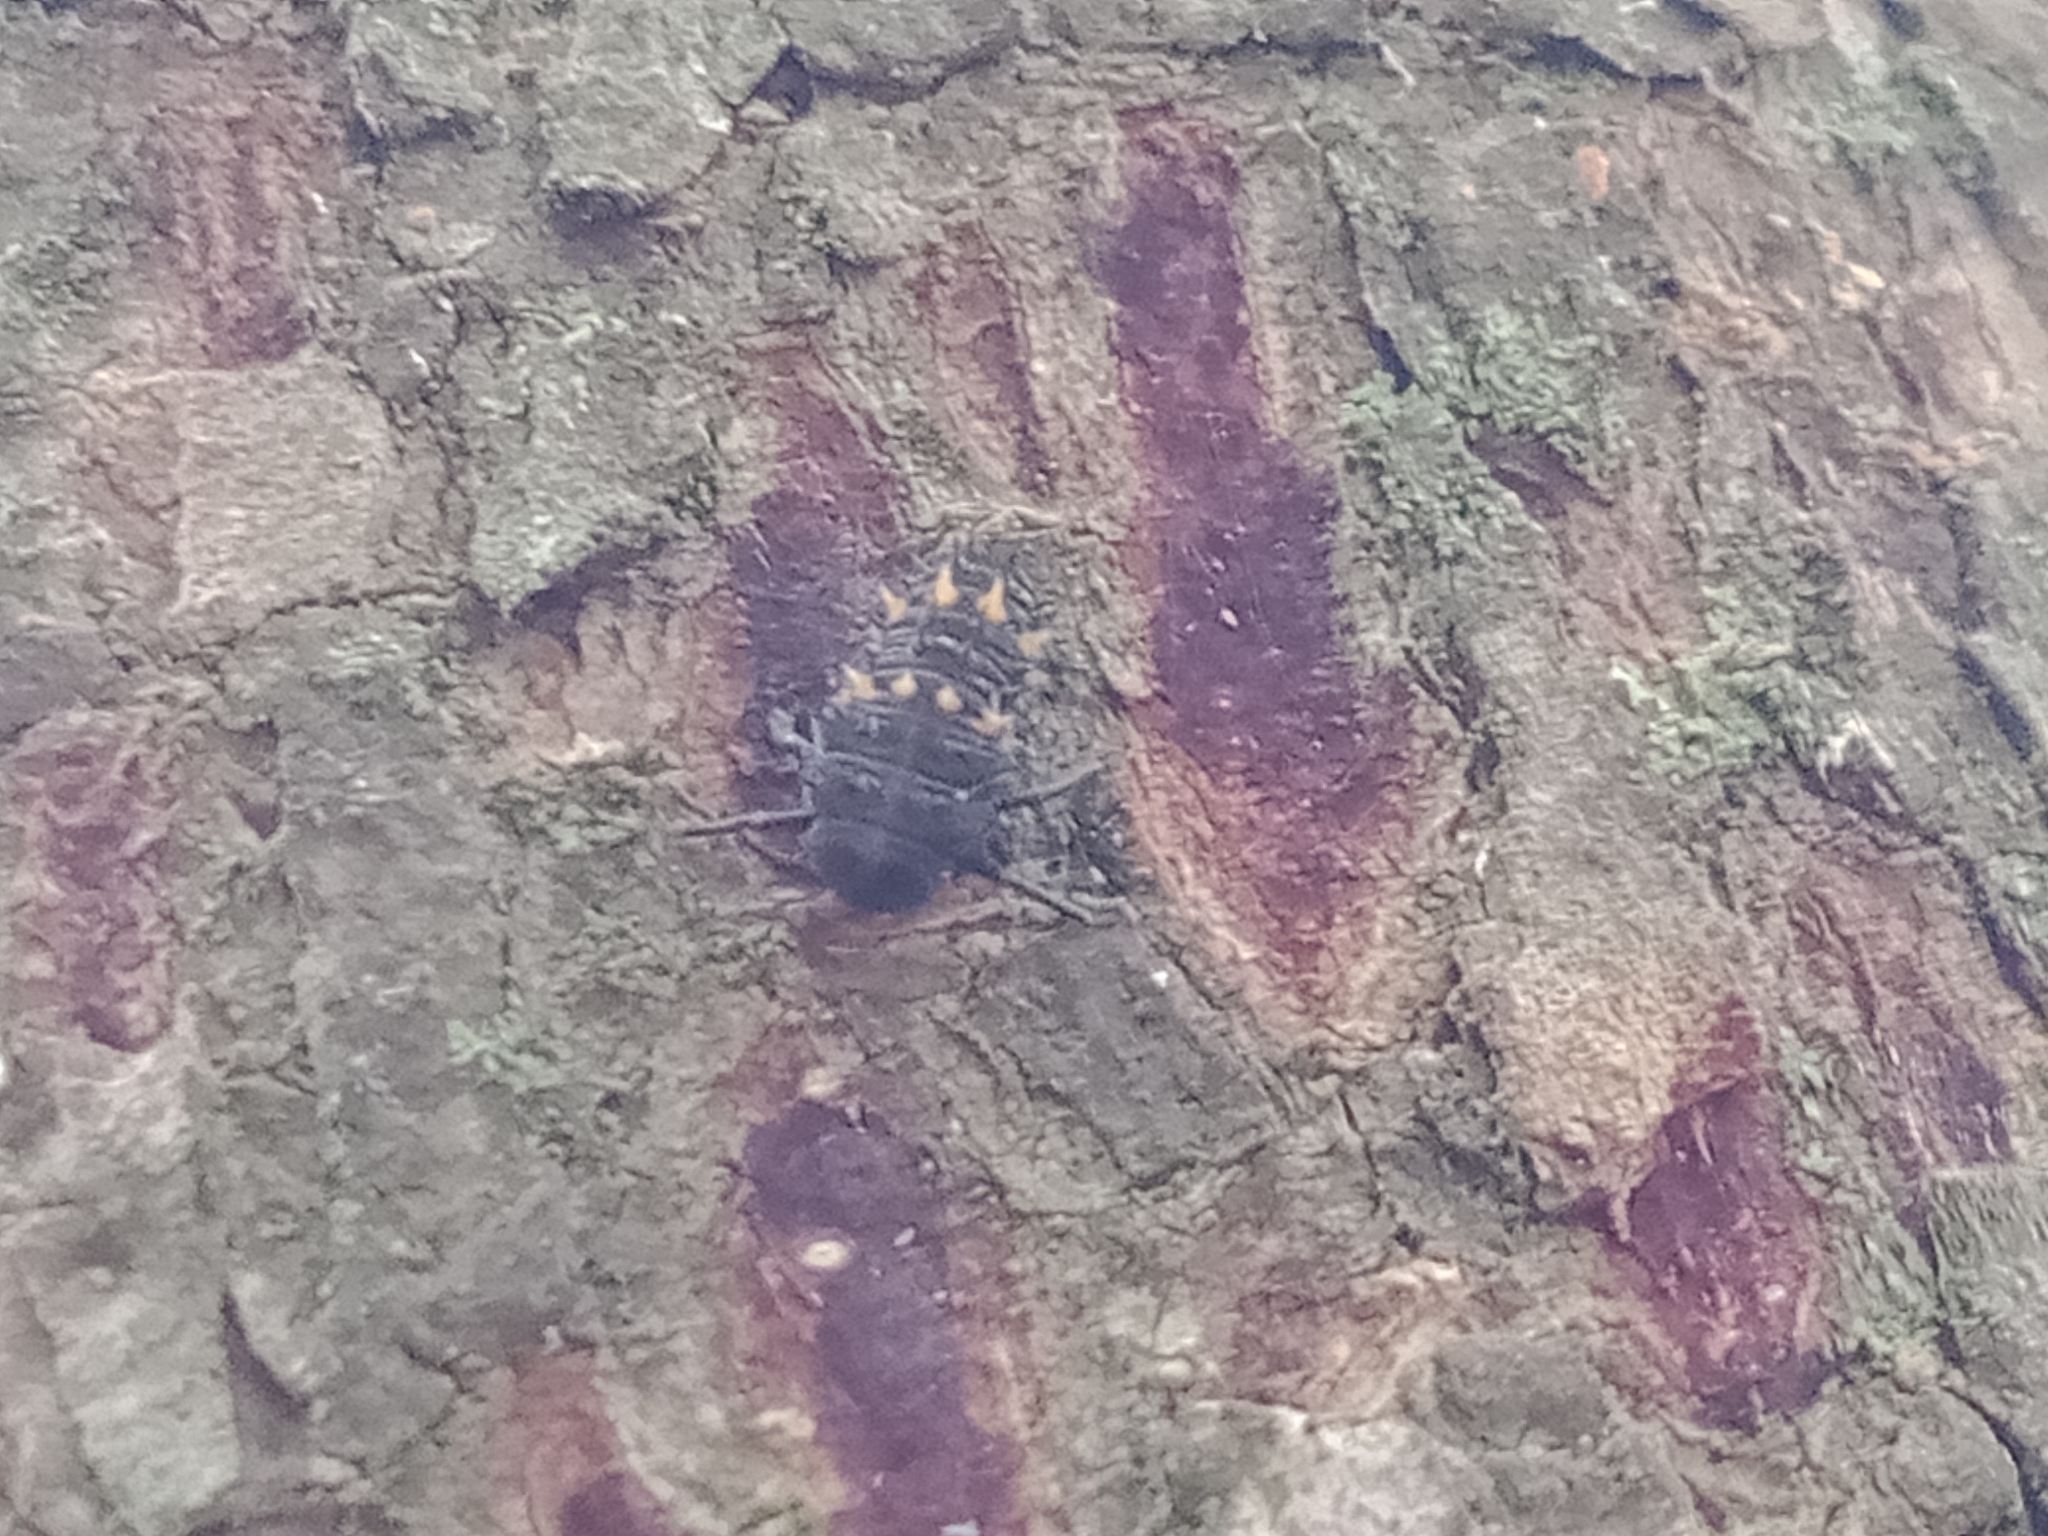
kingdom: Animalia
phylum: Arthropoda
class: Insecta
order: Coleoptera
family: Coccinellidae
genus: Harmonia
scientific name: Harmonia conformis
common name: Common spotted ladybird beetle
